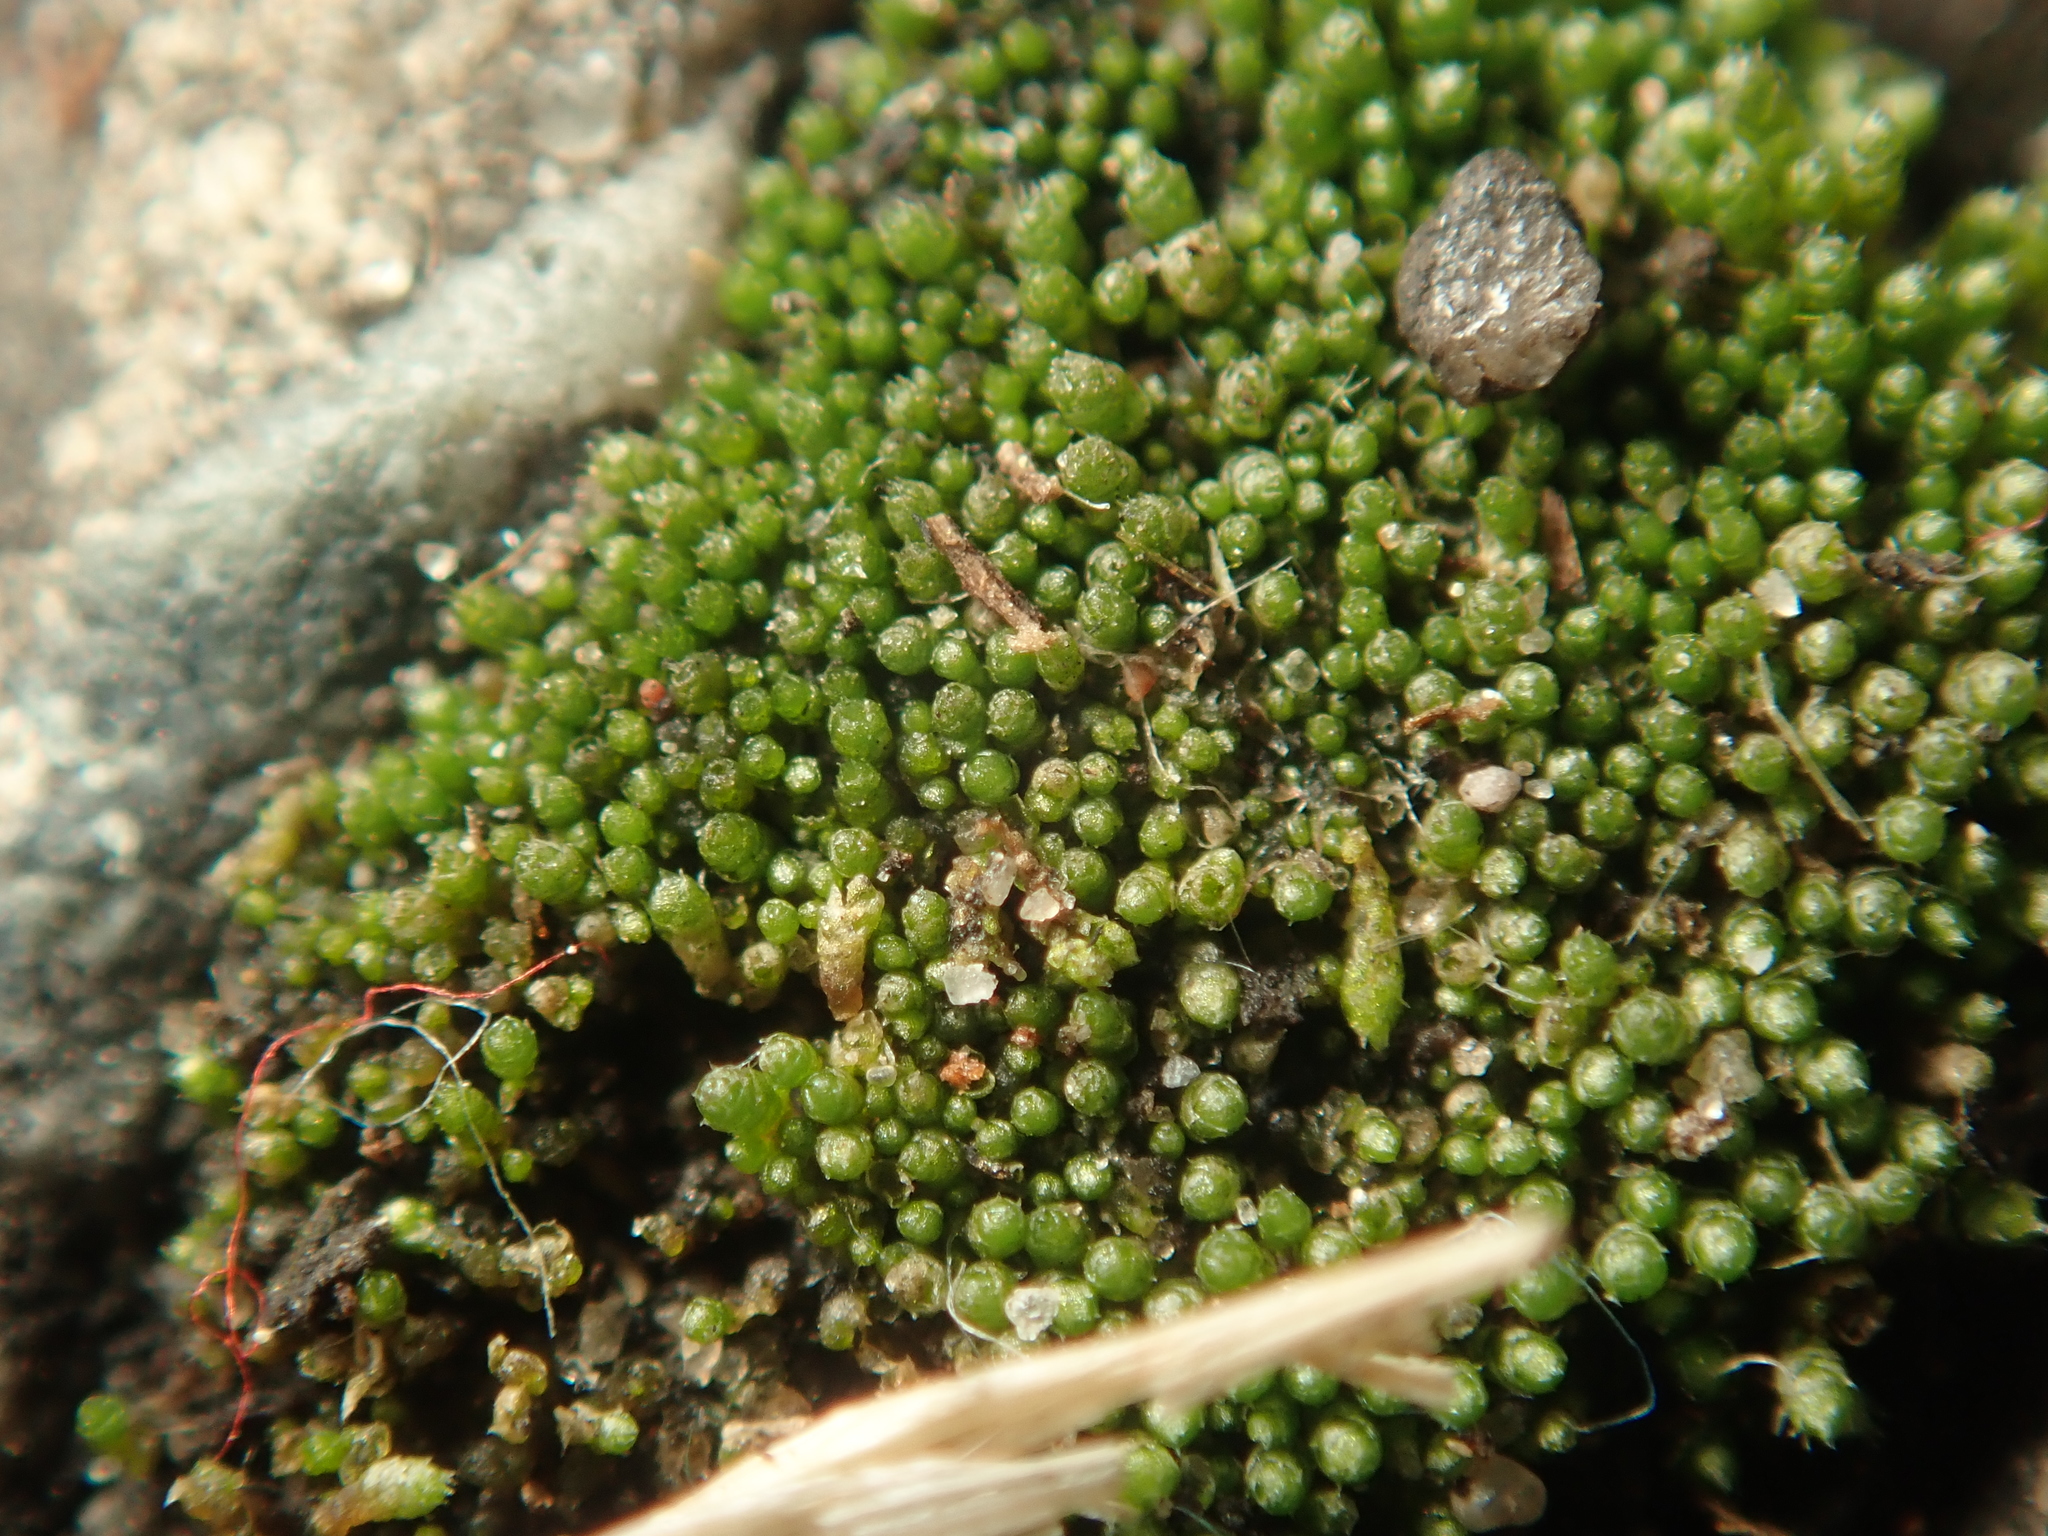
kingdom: Plantae
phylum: Bryophyta
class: Bryopsida
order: Bryales
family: Bryaceae
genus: Bryum
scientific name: Bryum argenteum
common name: Silver-moss
